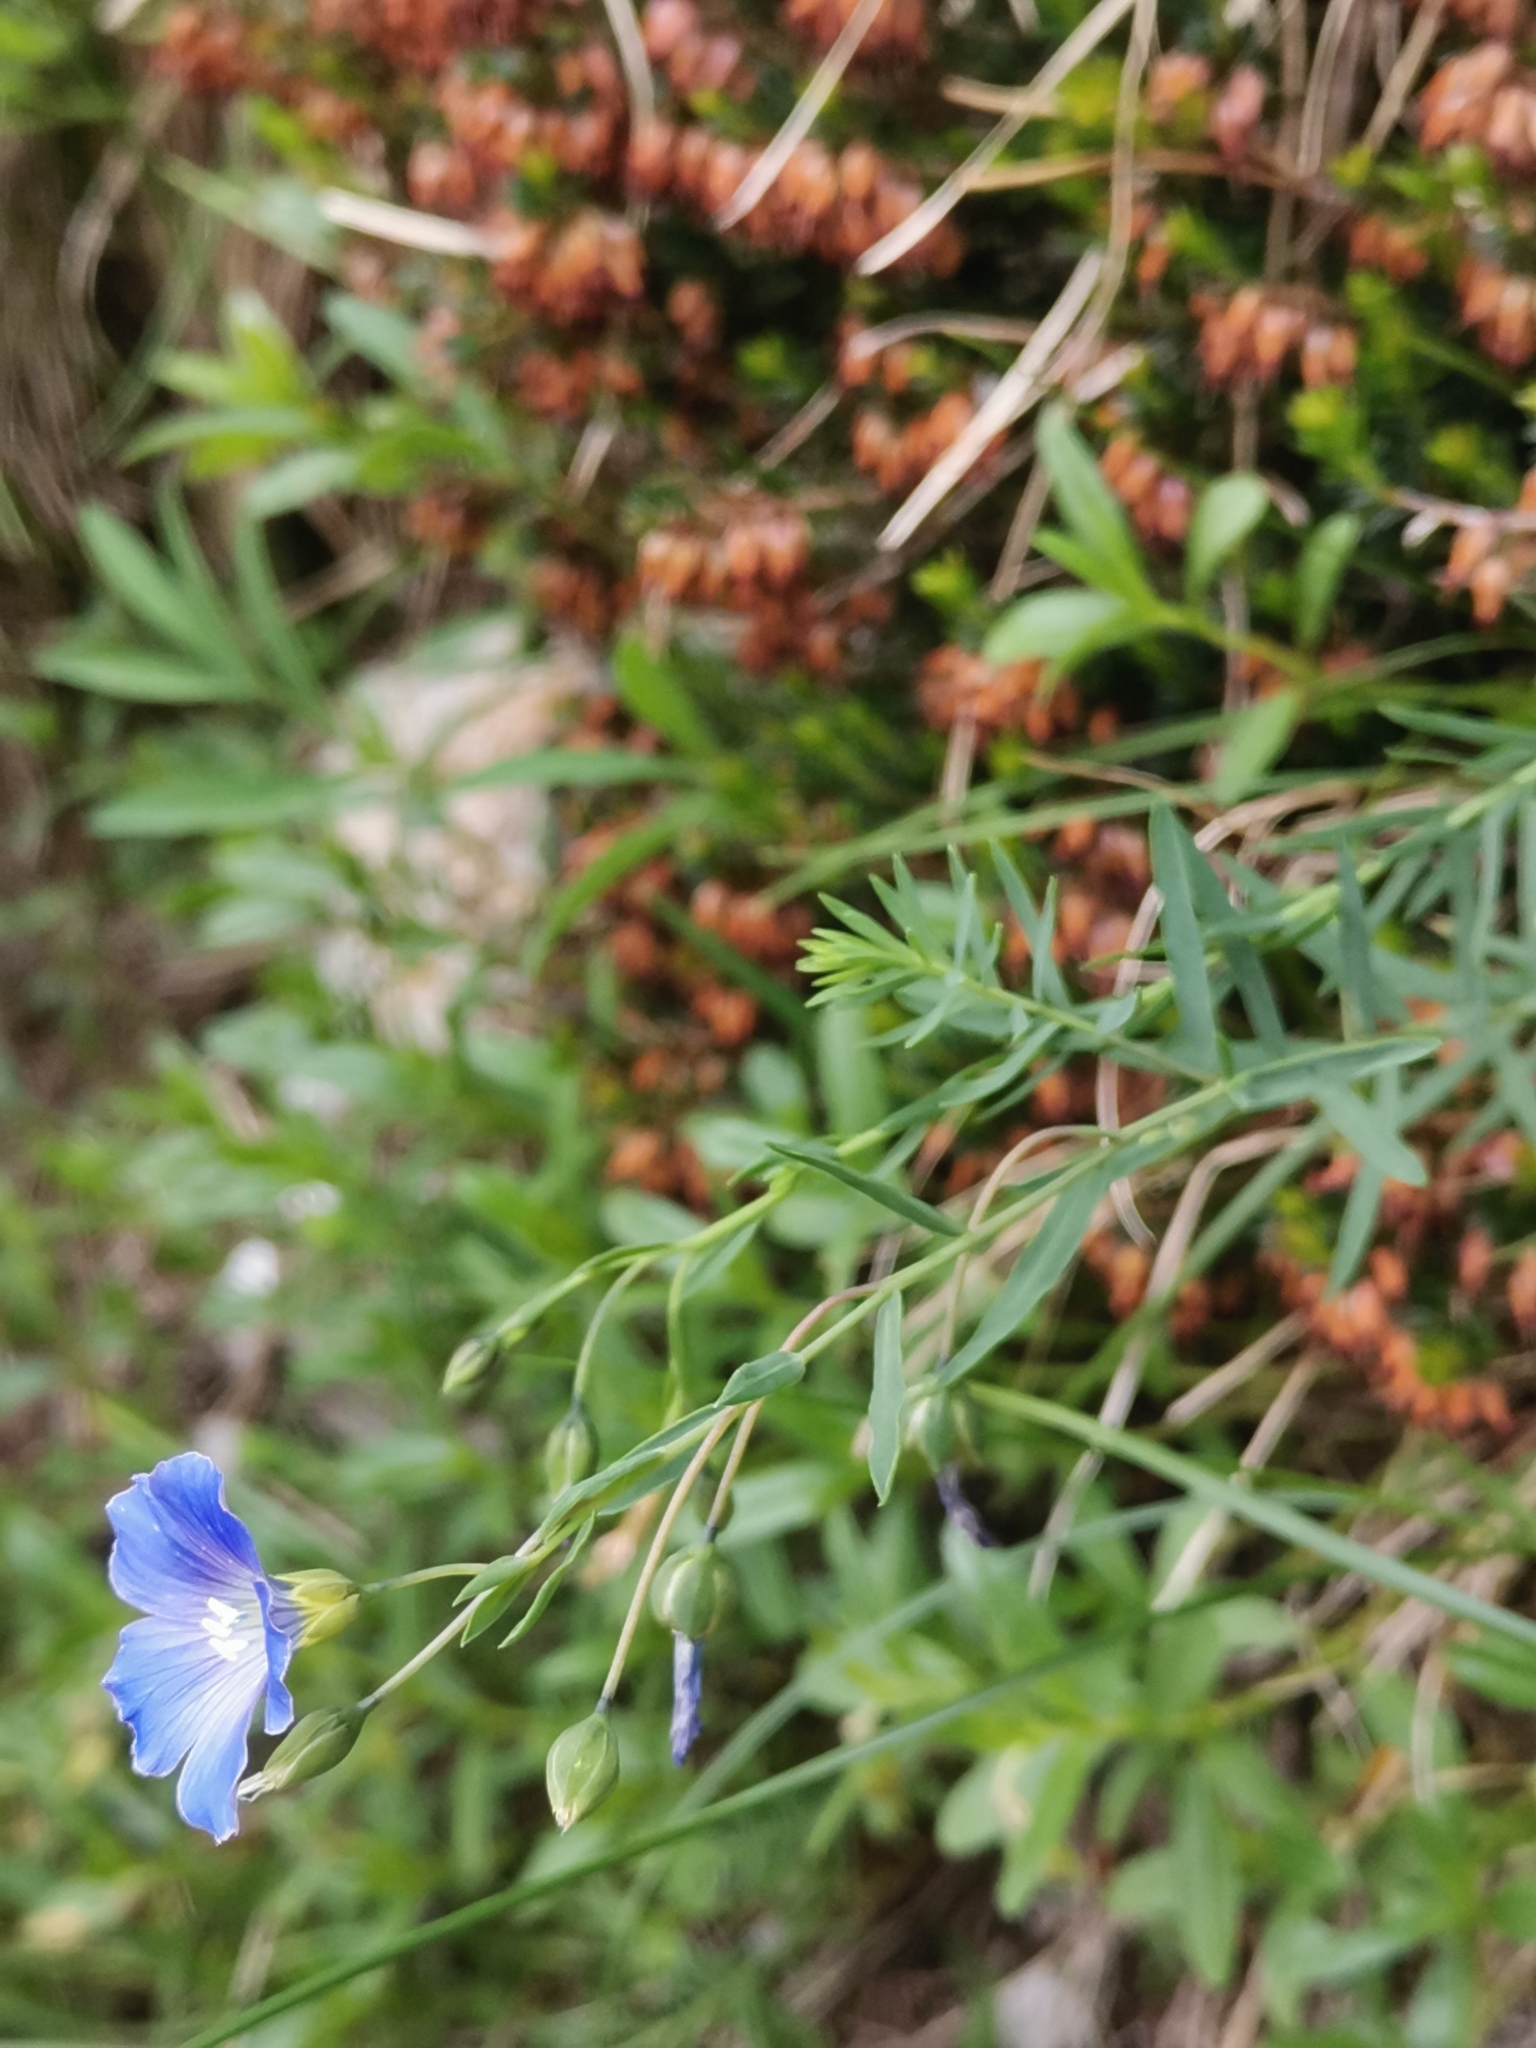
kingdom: Plantae
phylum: Tracheophyta
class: Magnoliopsida
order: Malpighiales
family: Linaceae
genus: Linum
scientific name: Linum alpinum
